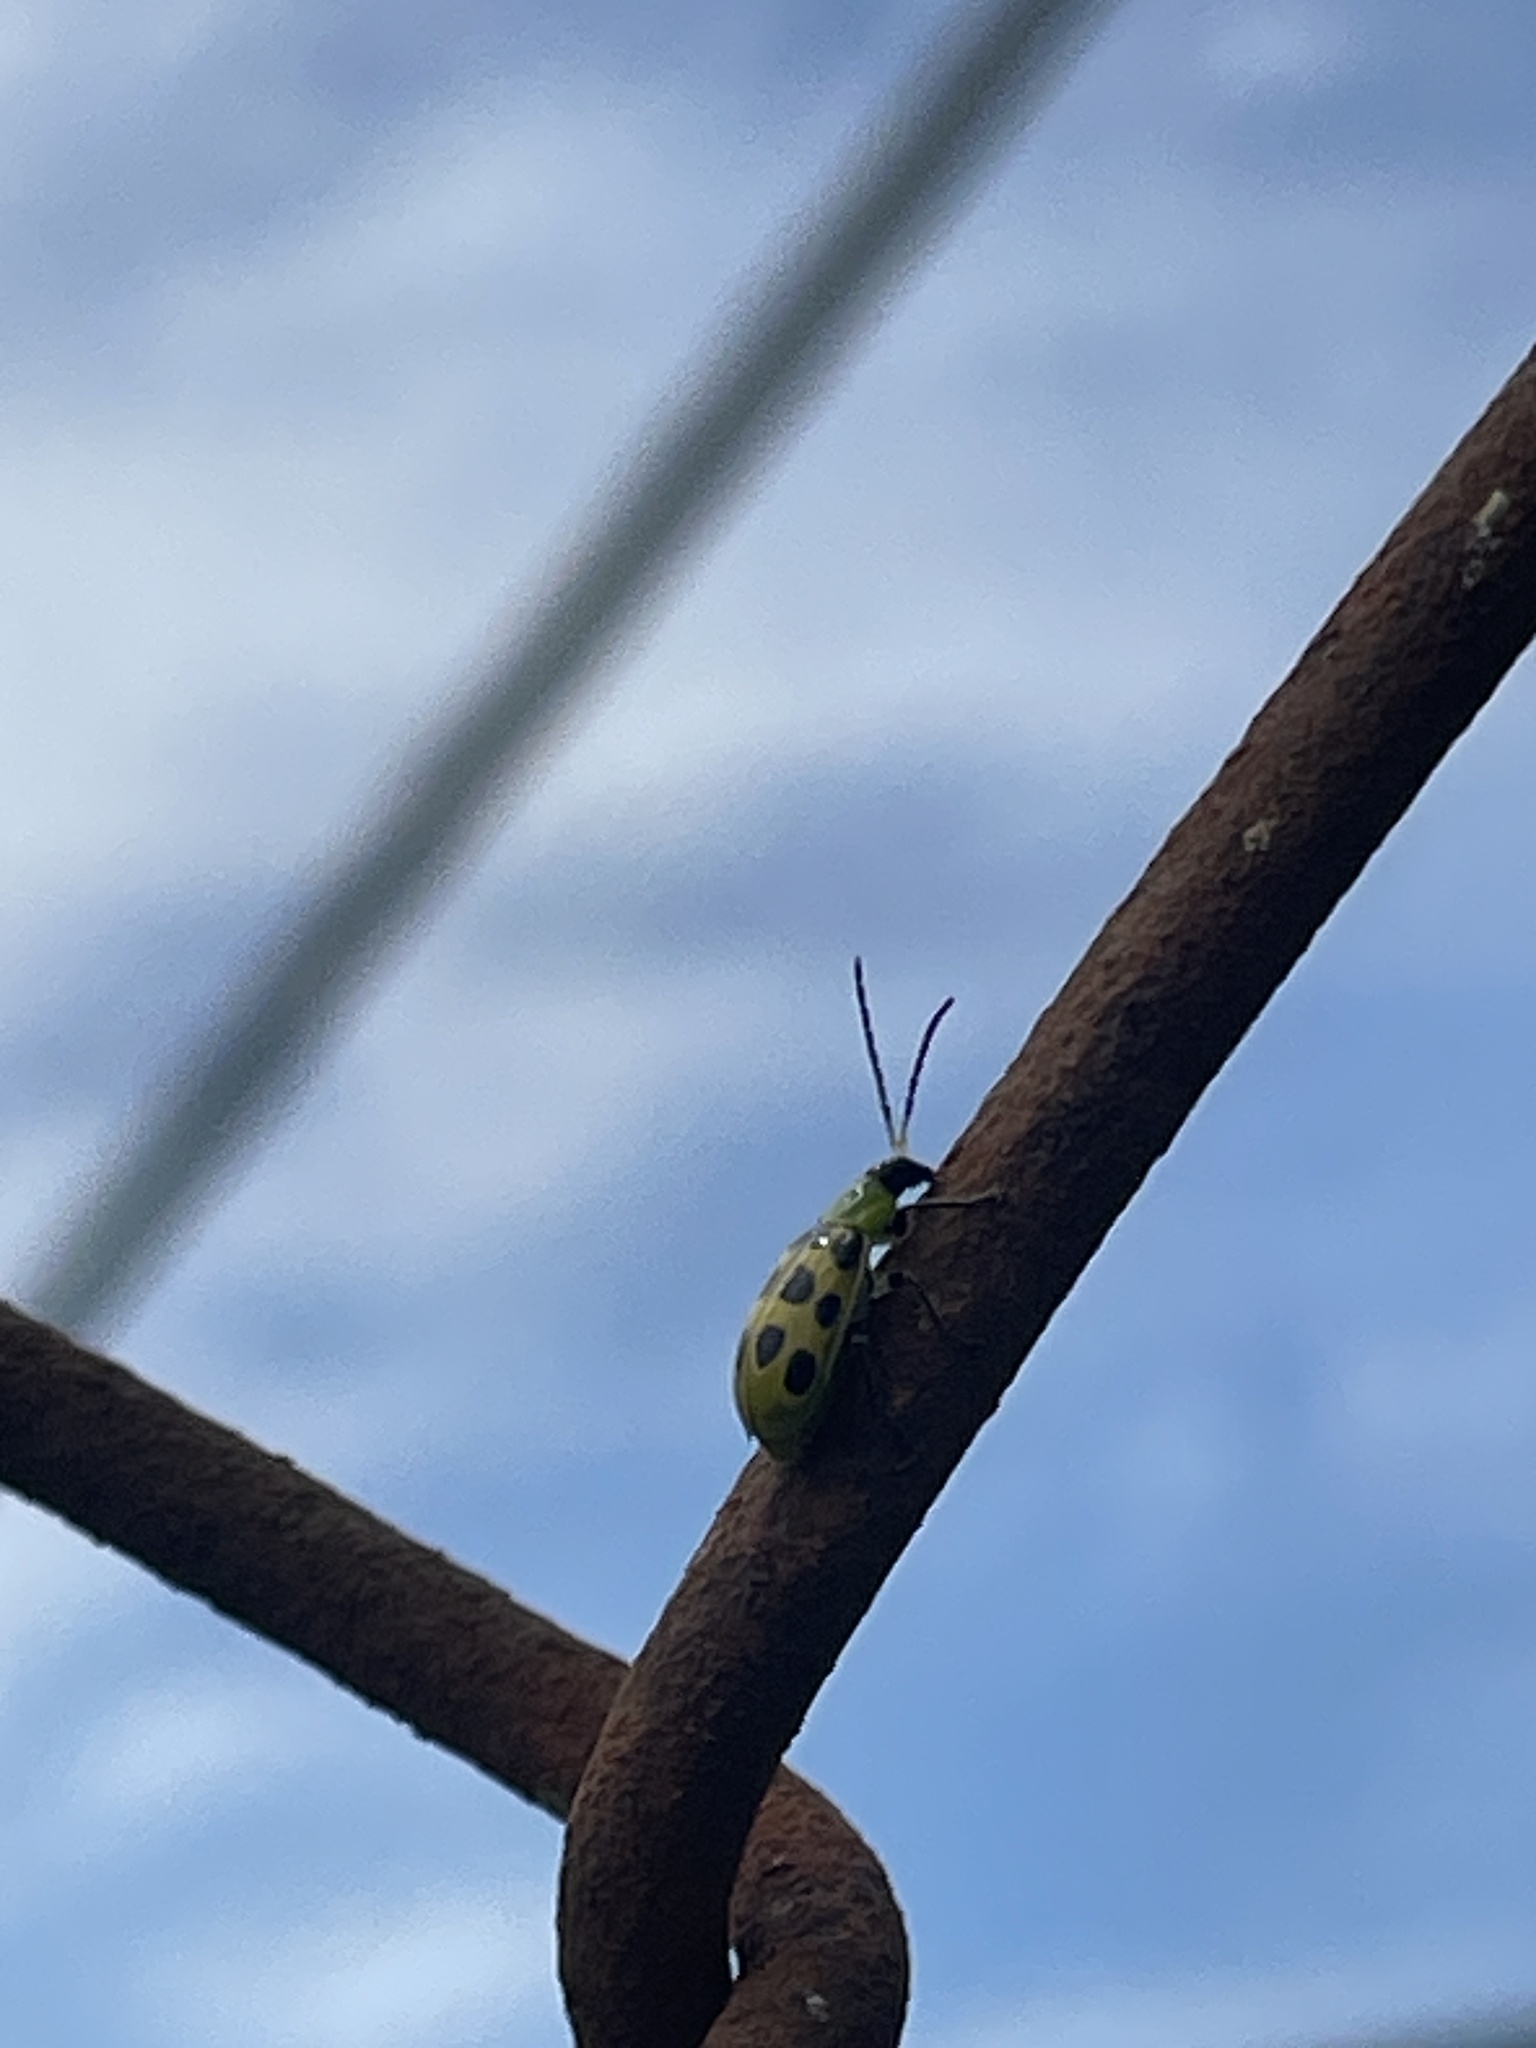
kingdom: Animalia
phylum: Arthropoda
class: Insecta
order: Coleoptera
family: Chrysomelidae
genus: Diabrotica
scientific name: Diabrotica undecimpunctata
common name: Spotted cucumber beetle
